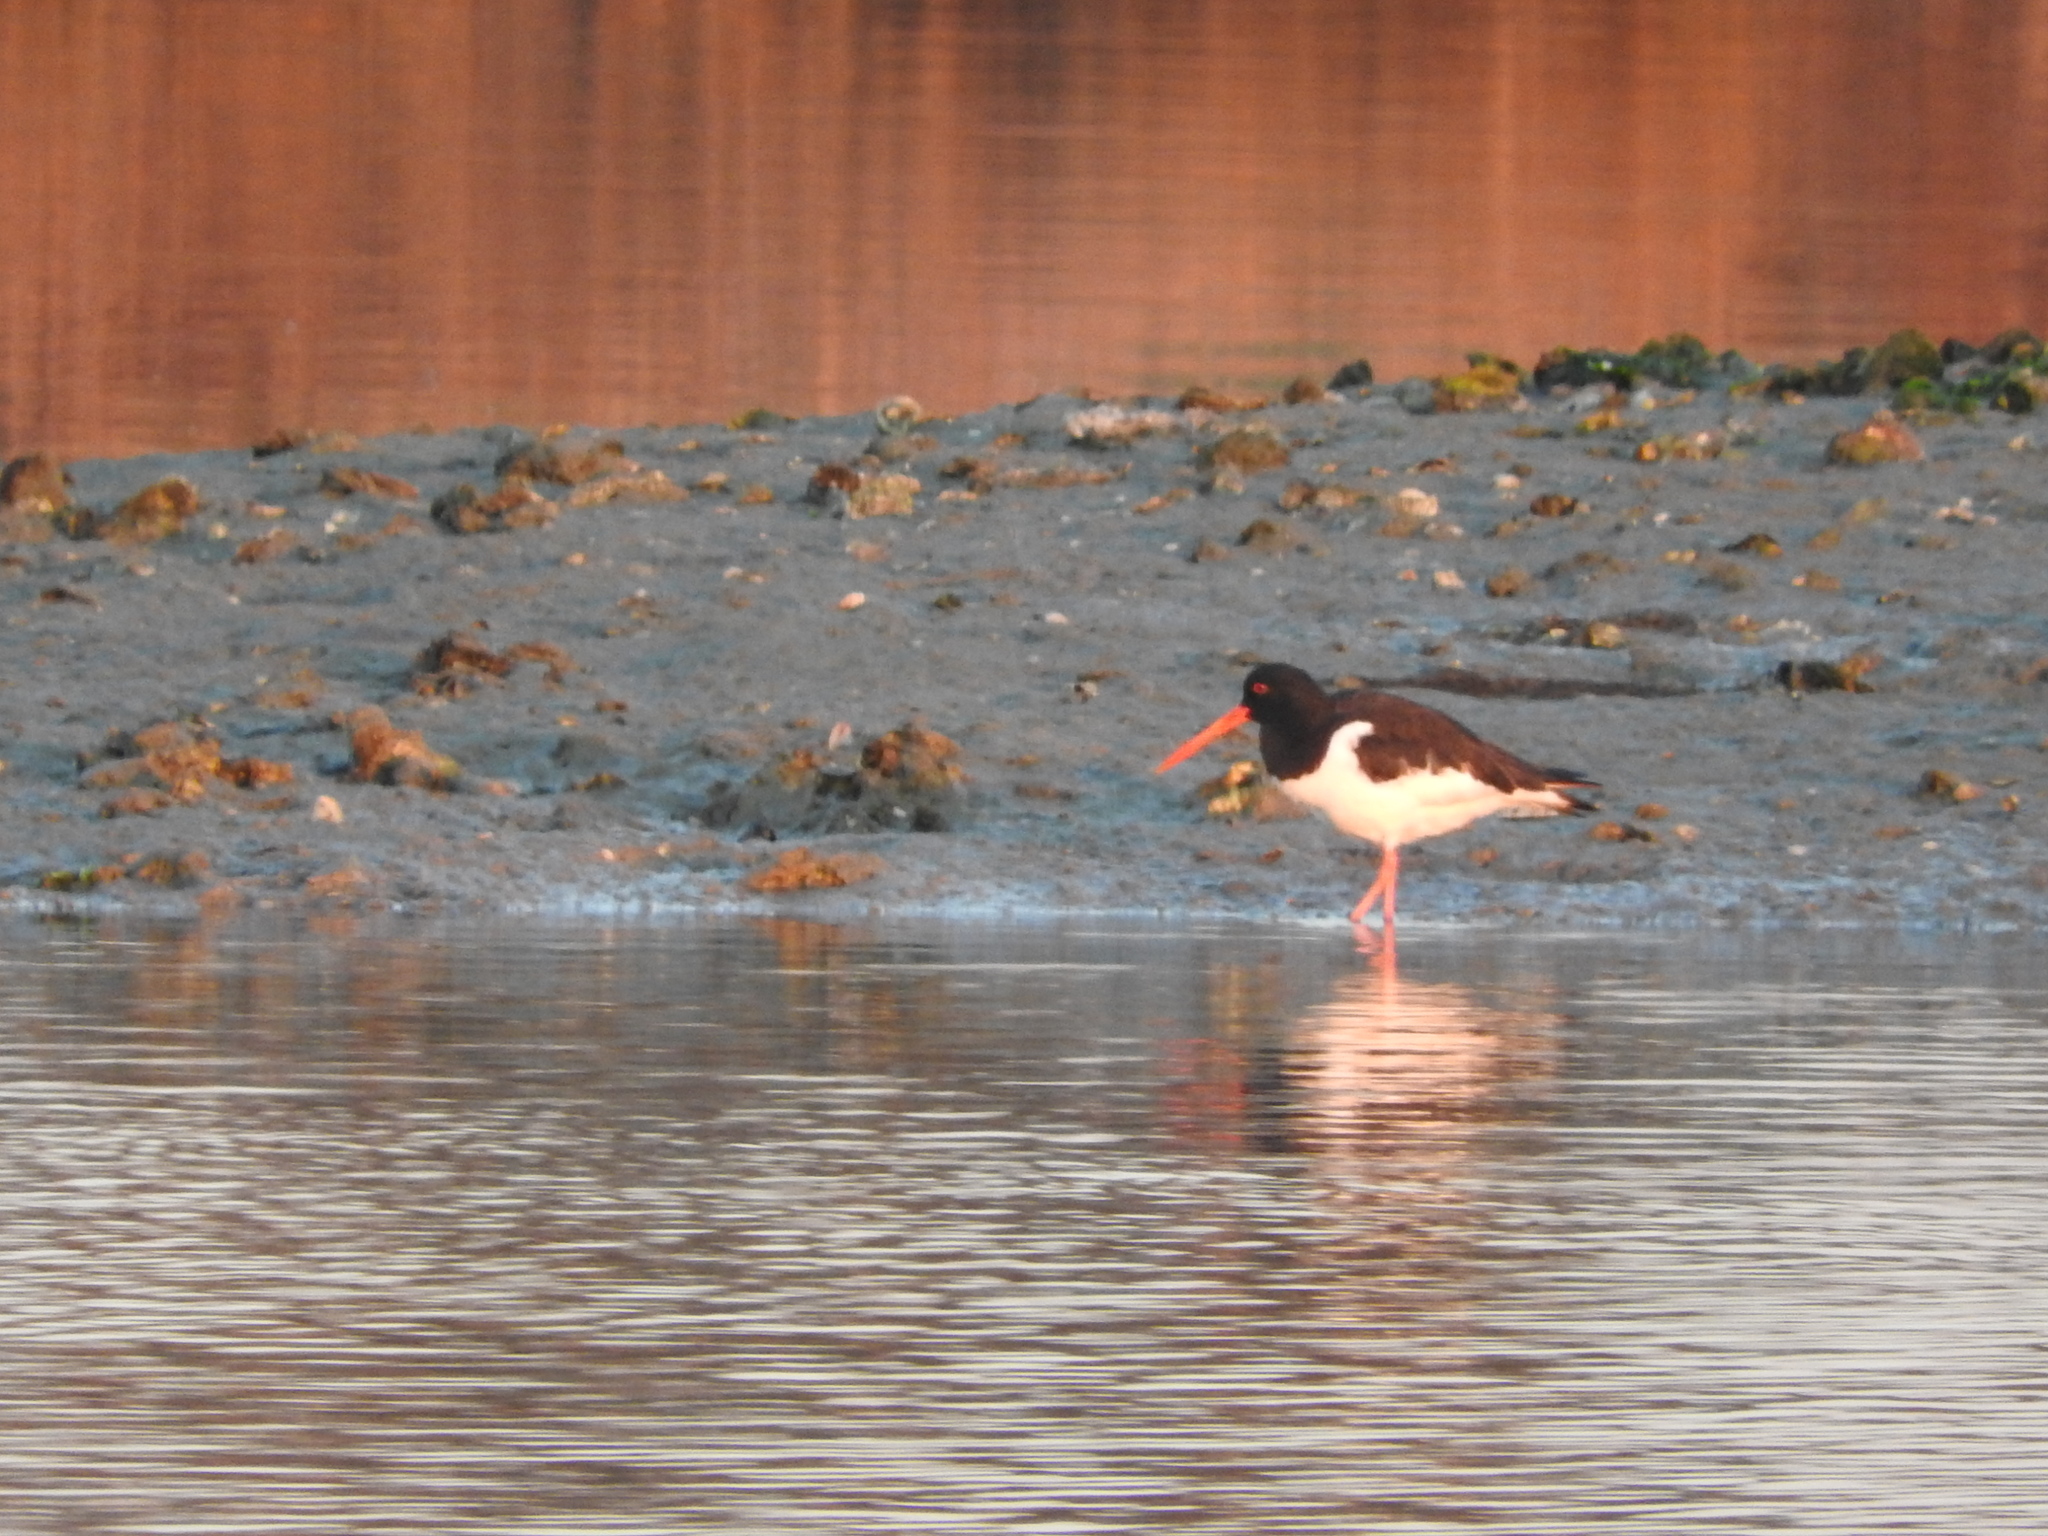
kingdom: Animalia
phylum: Chordata
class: Aves
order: Charadriiformes
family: Haematopodidae
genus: Haematopus
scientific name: Haematopus ostralegus
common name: Eurasian oystercatcher
